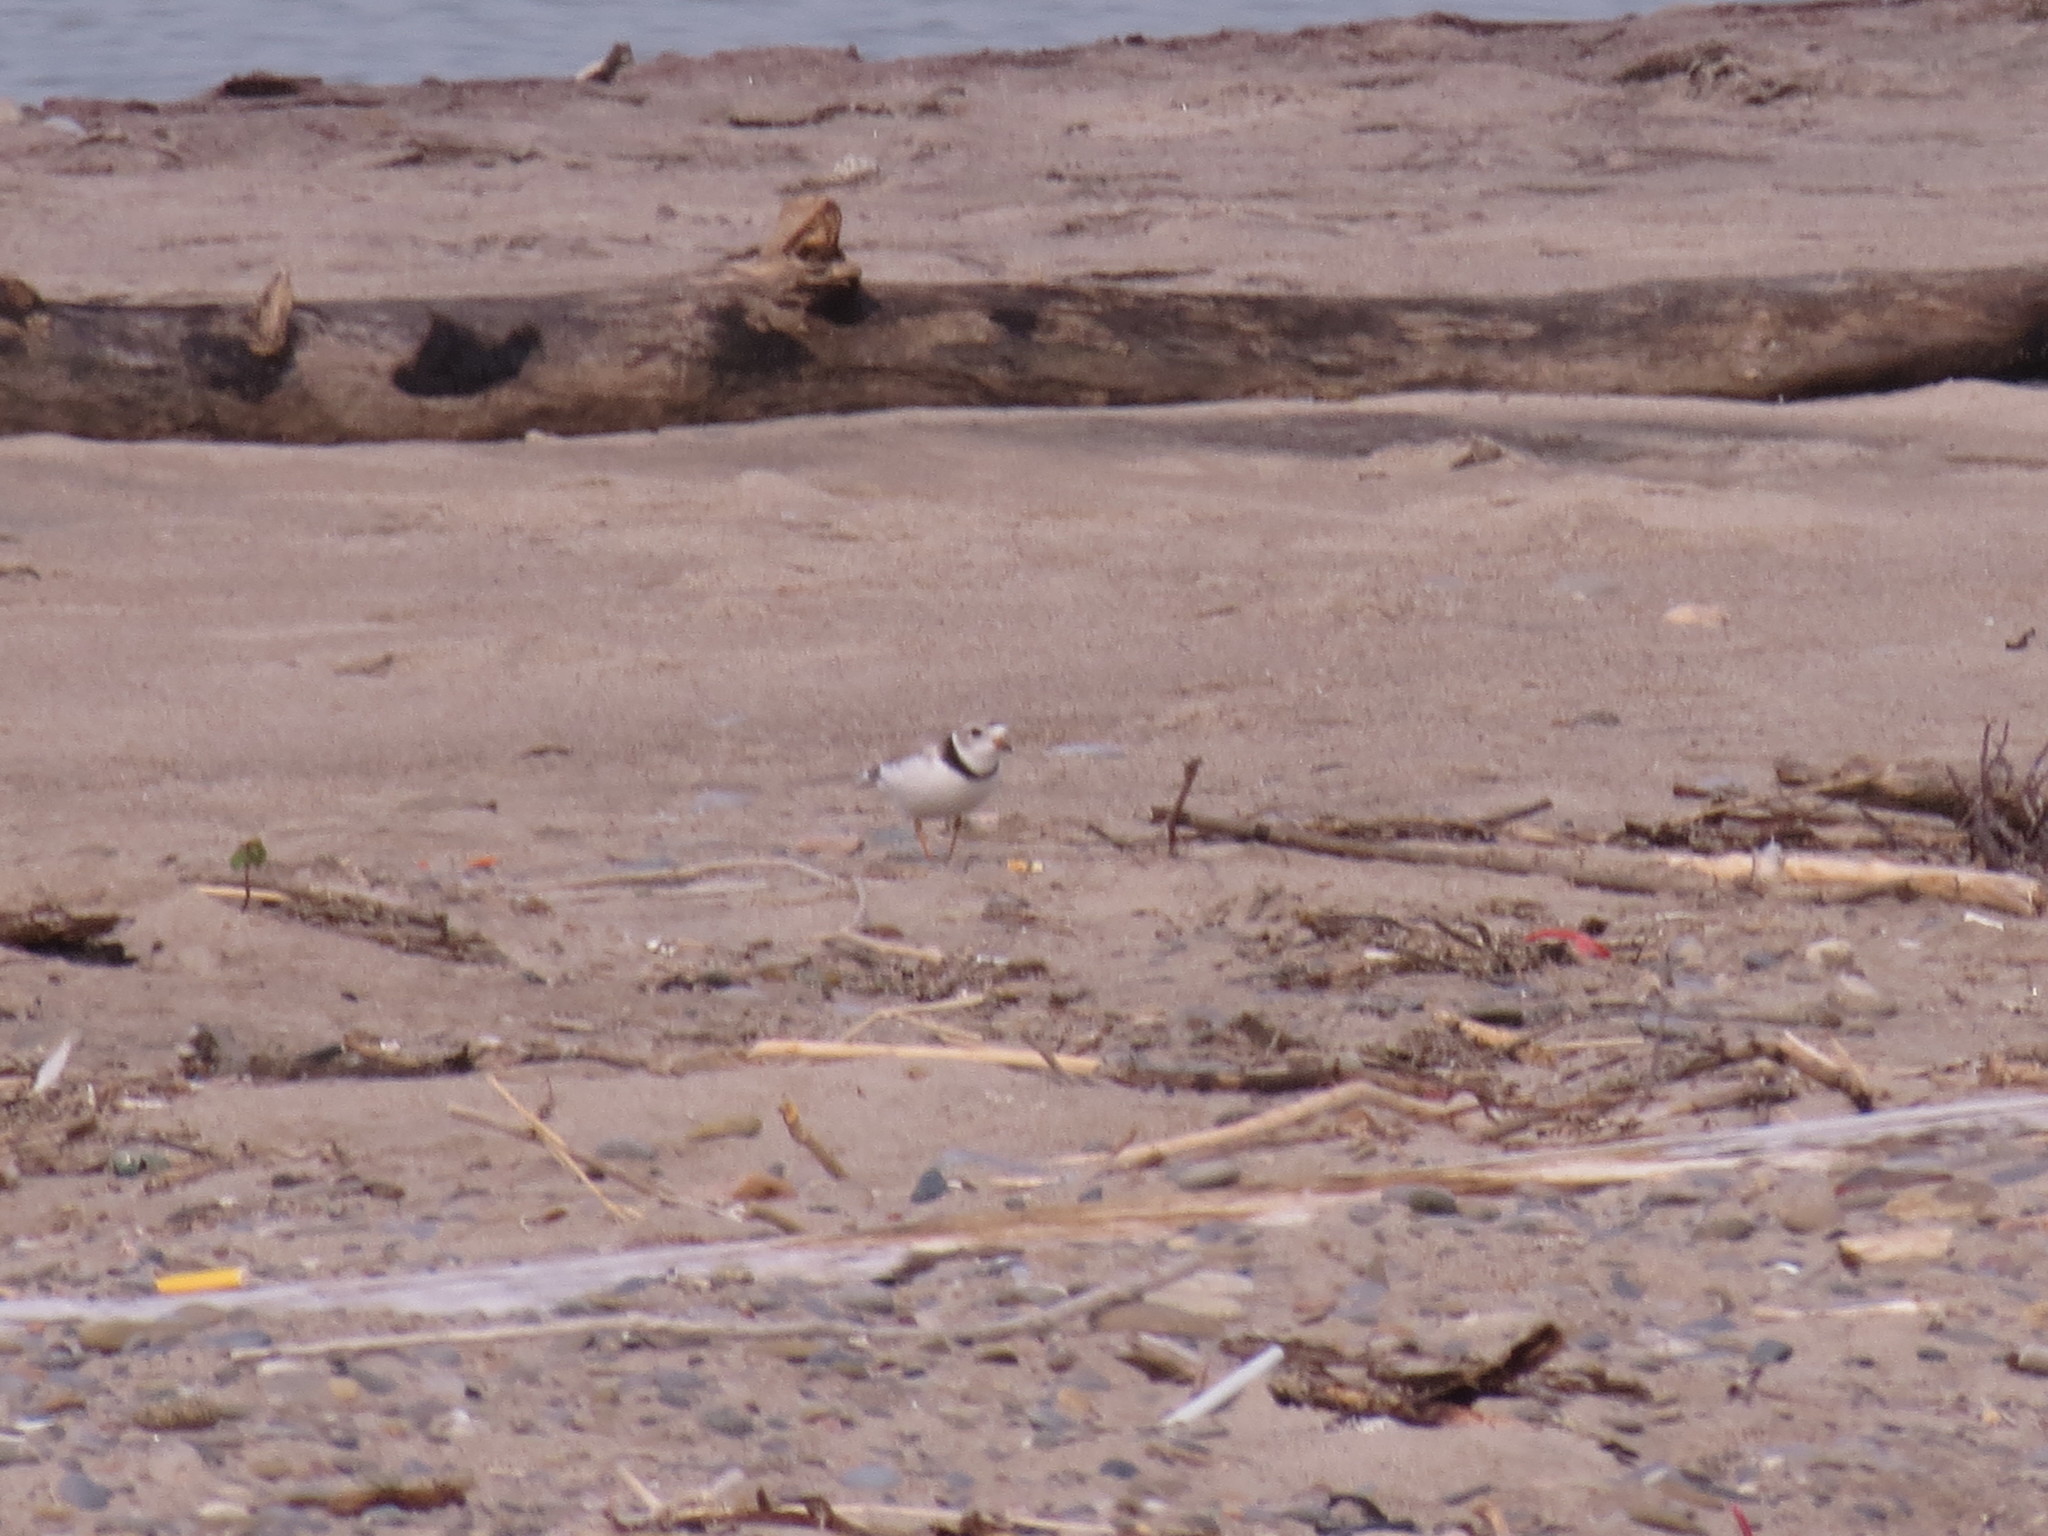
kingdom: Animalia
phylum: Chordata
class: Aves
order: Charadriiformes
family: Charadriidae
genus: Charadrius
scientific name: Charadrius melodus
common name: Piping plover
